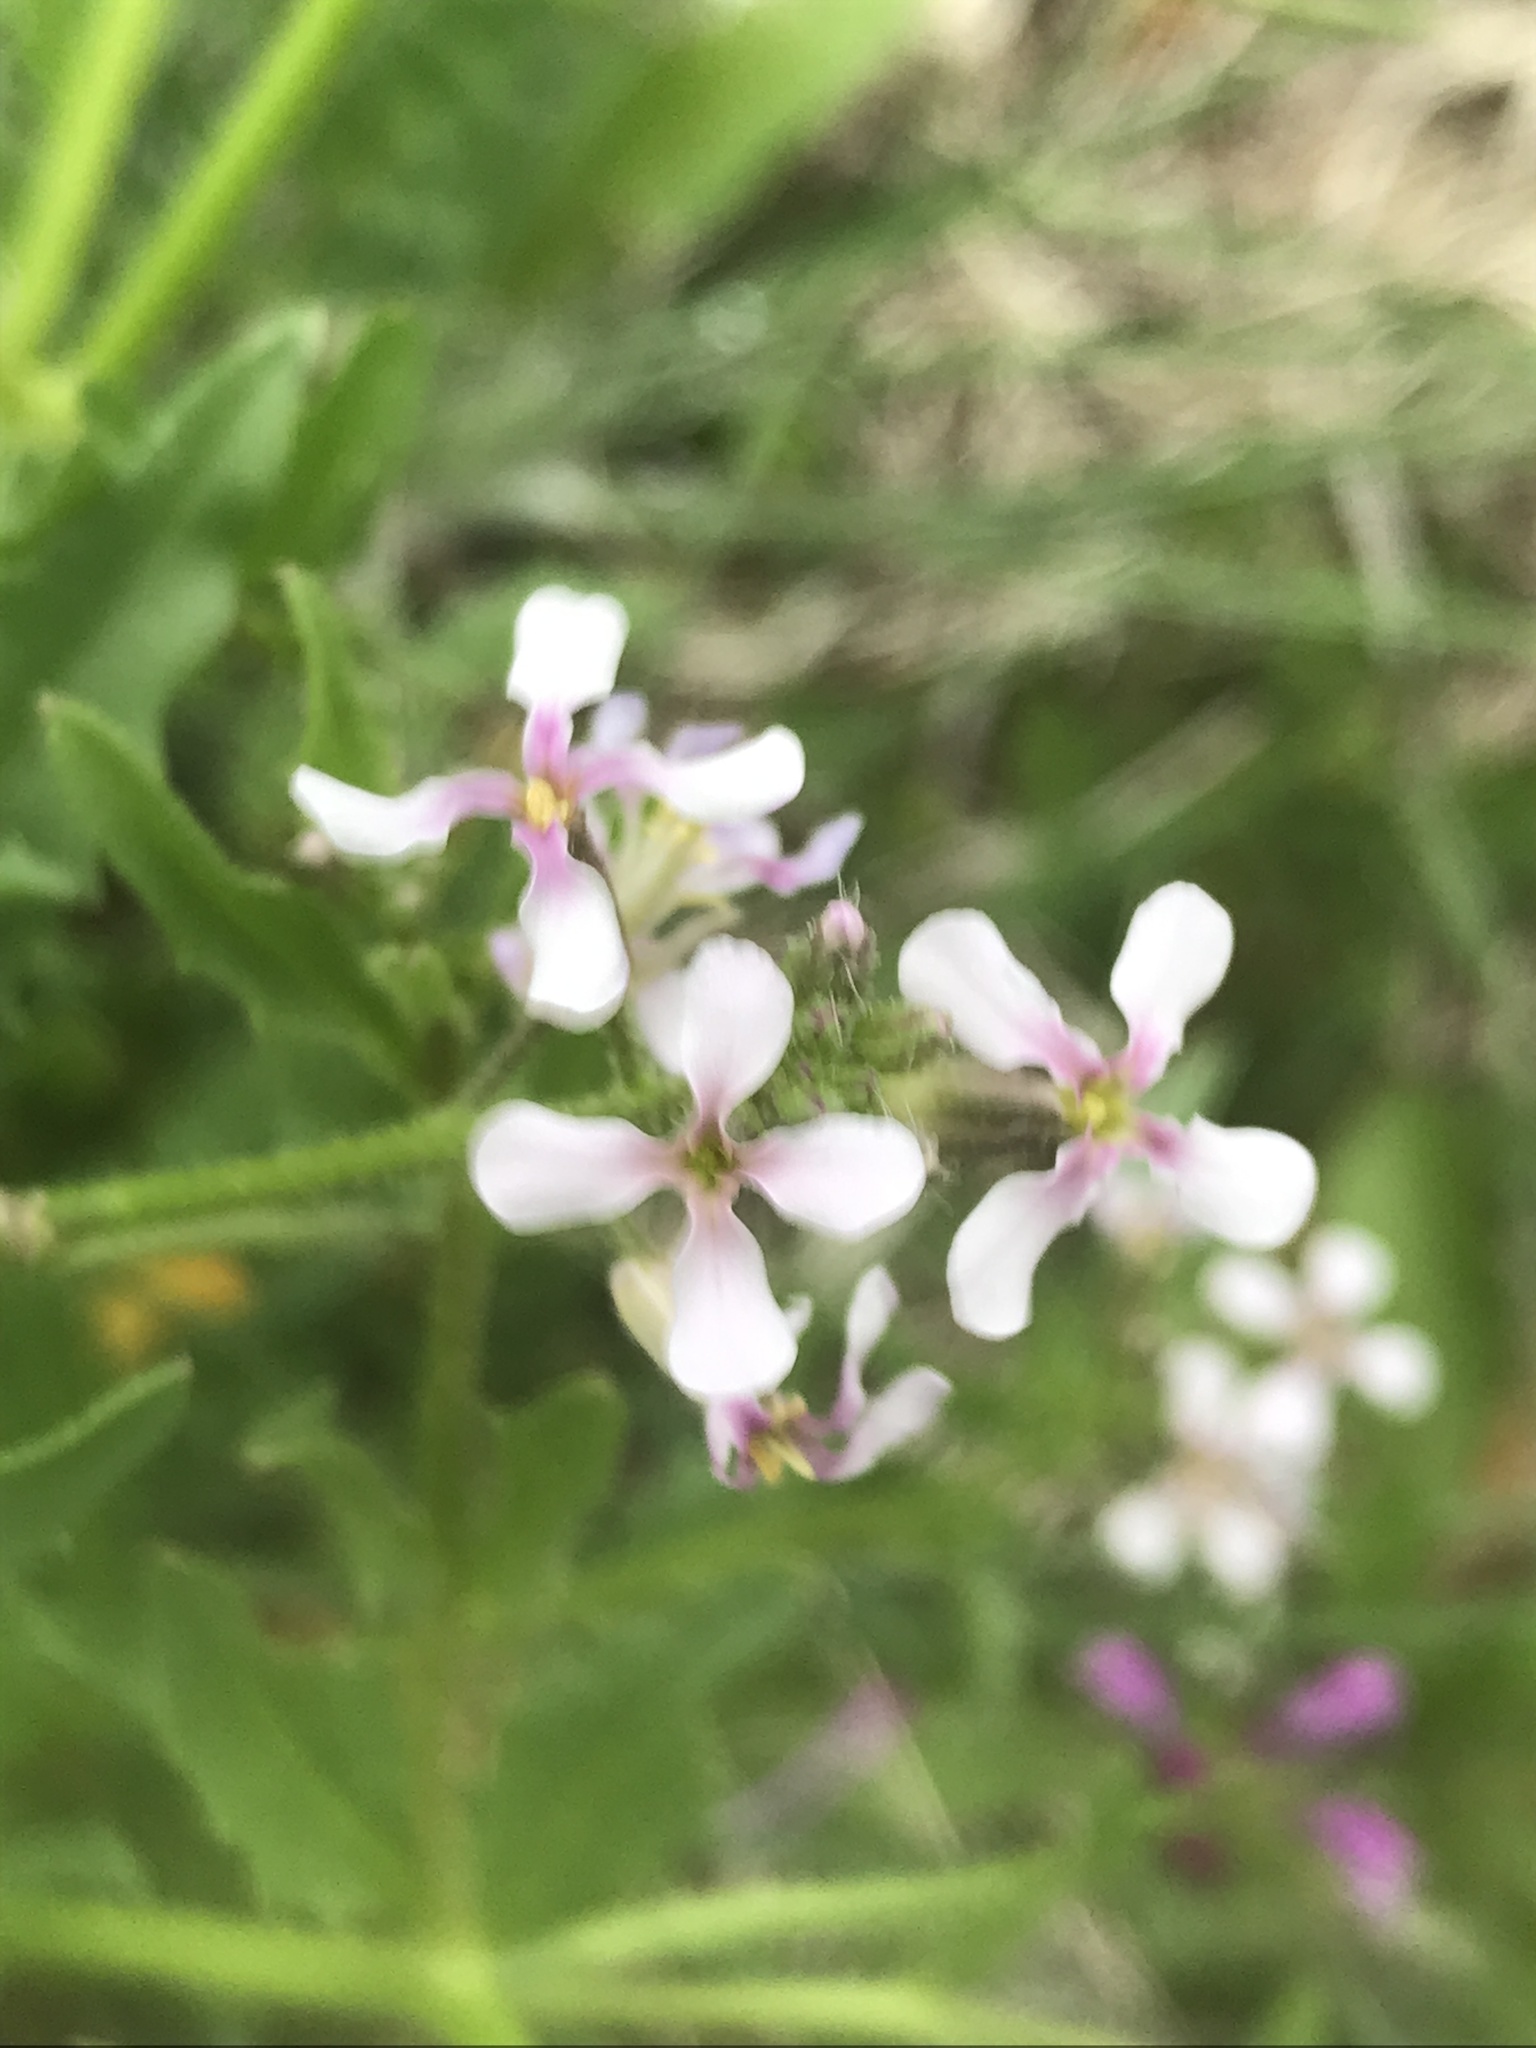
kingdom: Plantae
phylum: Tracheophyta
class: Magnoliopsida
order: Brassicales
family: Brassicaceae
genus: Chorispora
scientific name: Chorispora tenella
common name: Crossflower
